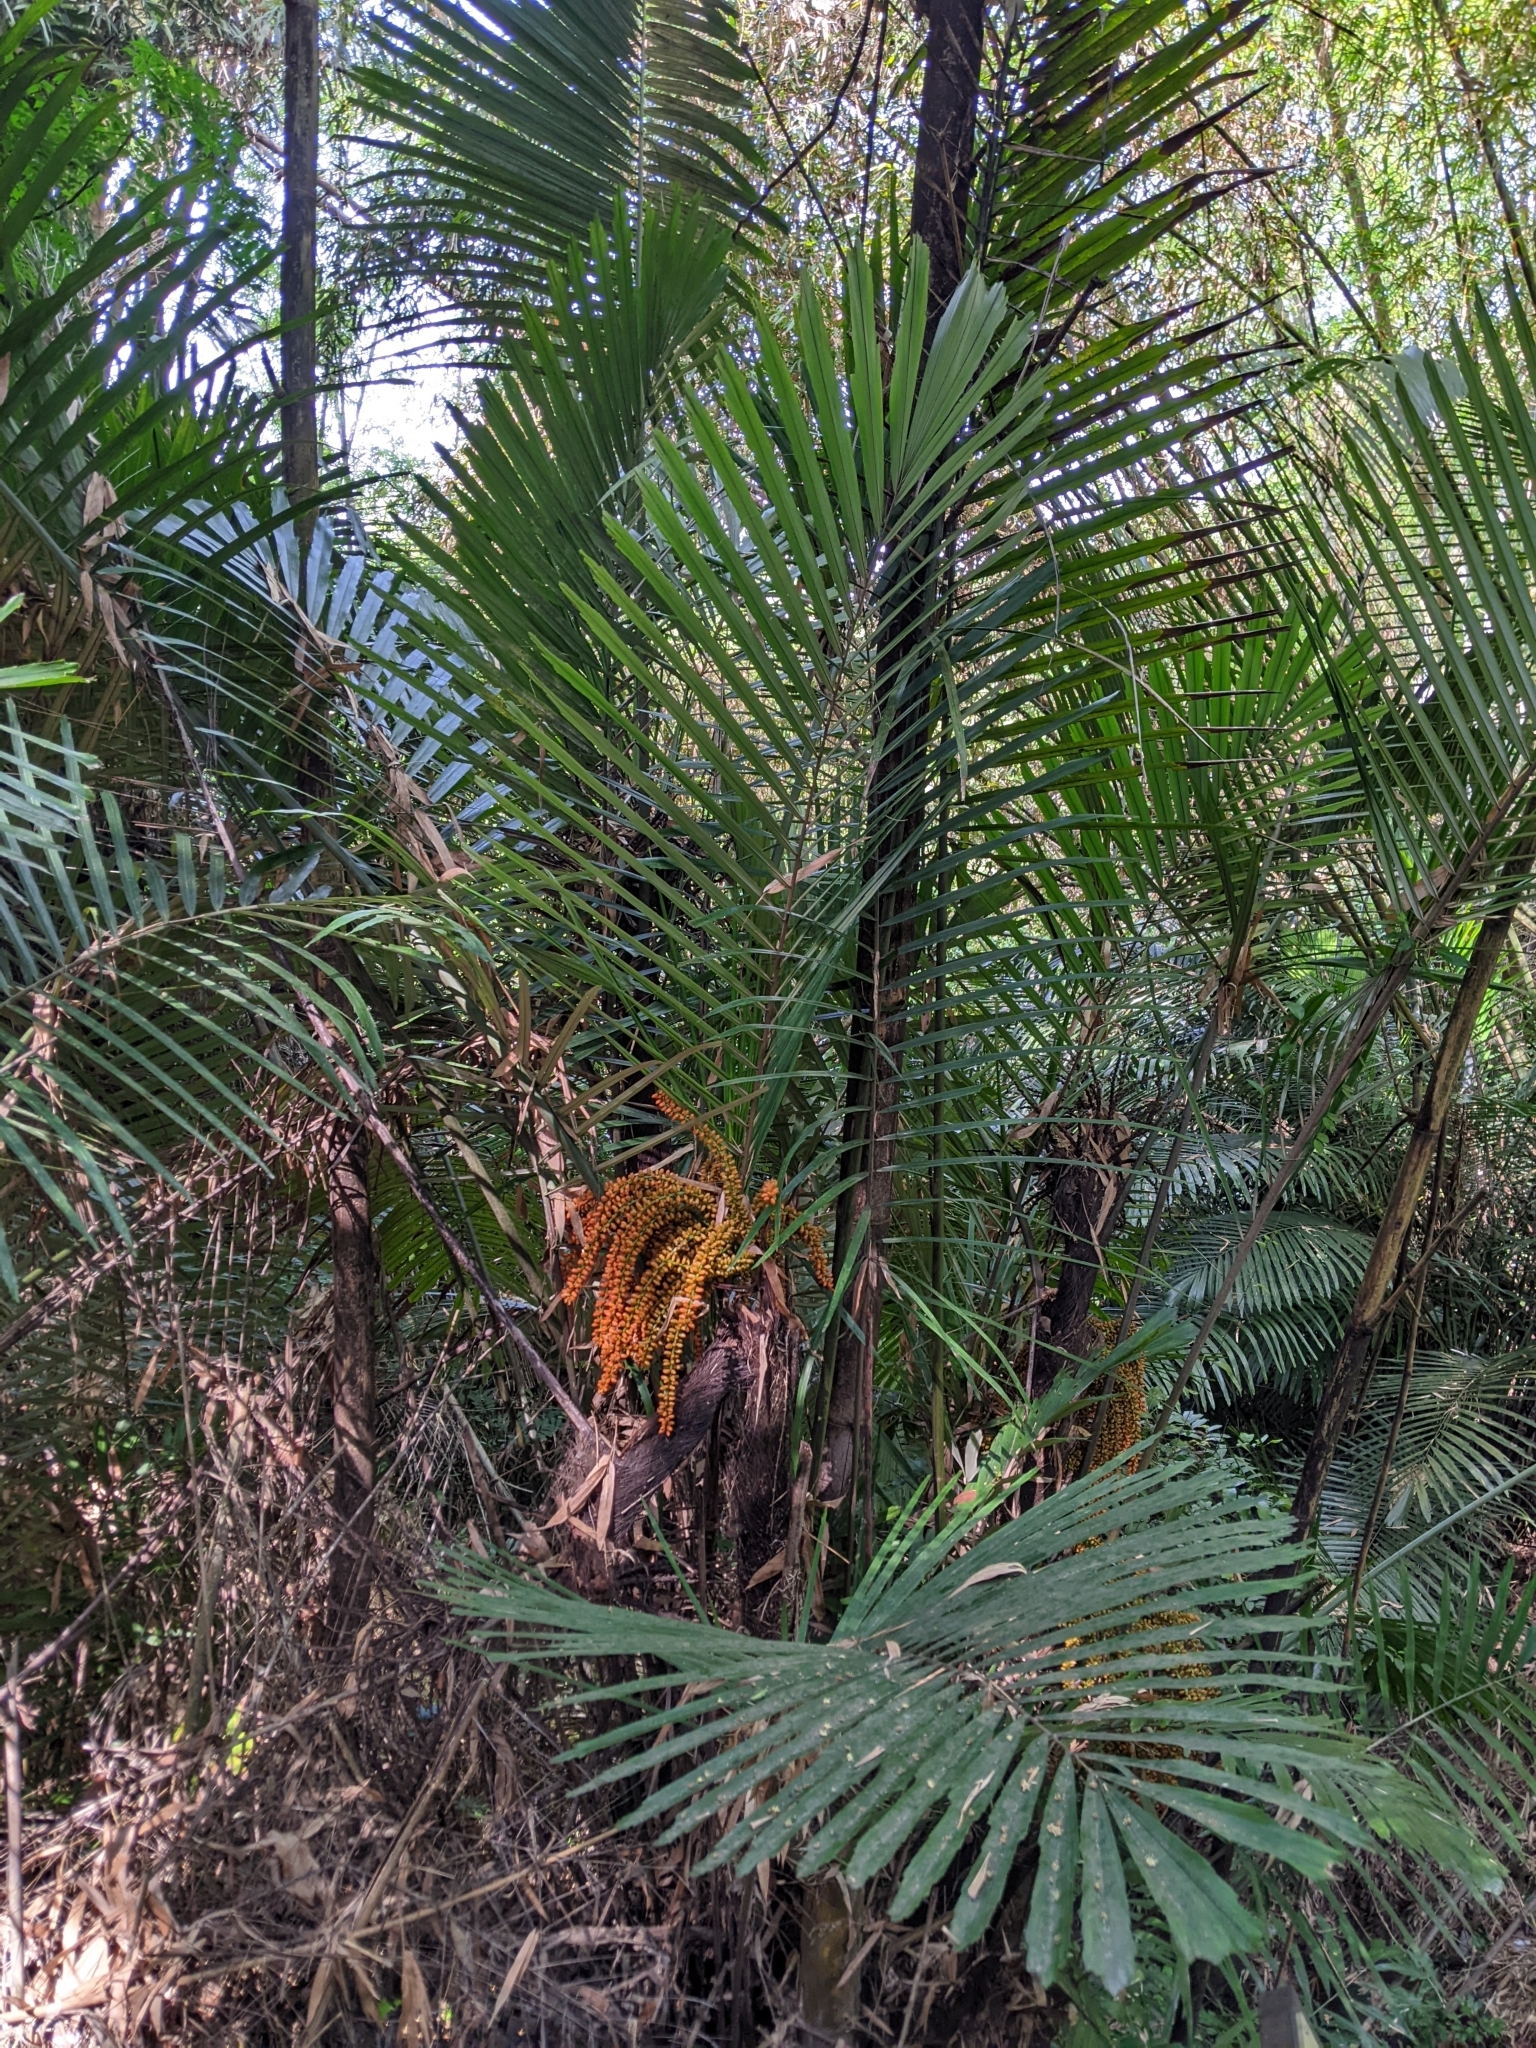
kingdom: Plantae
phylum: Tracheophyta
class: Liliopsida
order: Arecales
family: Arecaceae
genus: Arenga
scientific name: Arenga engleri
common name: Formosan sugar palm
